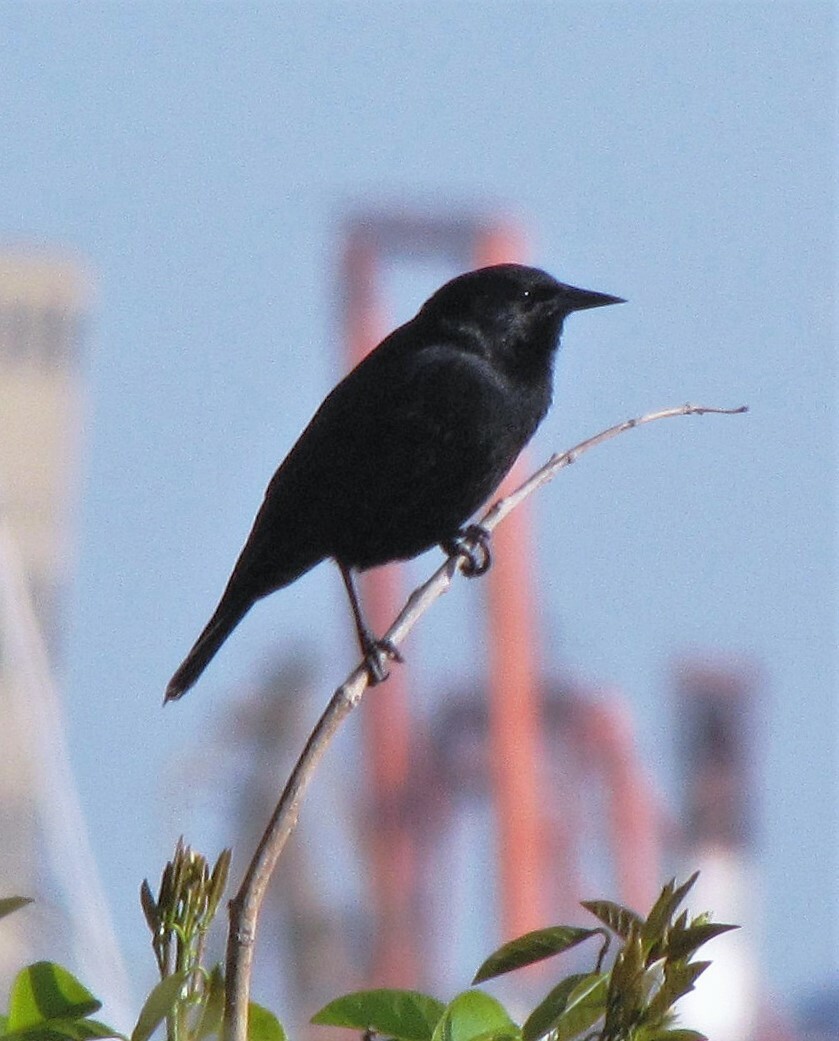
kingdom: Animalia
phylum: Chordata
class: Aves
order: Passeriformes
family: Icteridae
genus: Agelasticus
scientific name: Agelasticus cyanopus
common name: Unicolored blackbird
